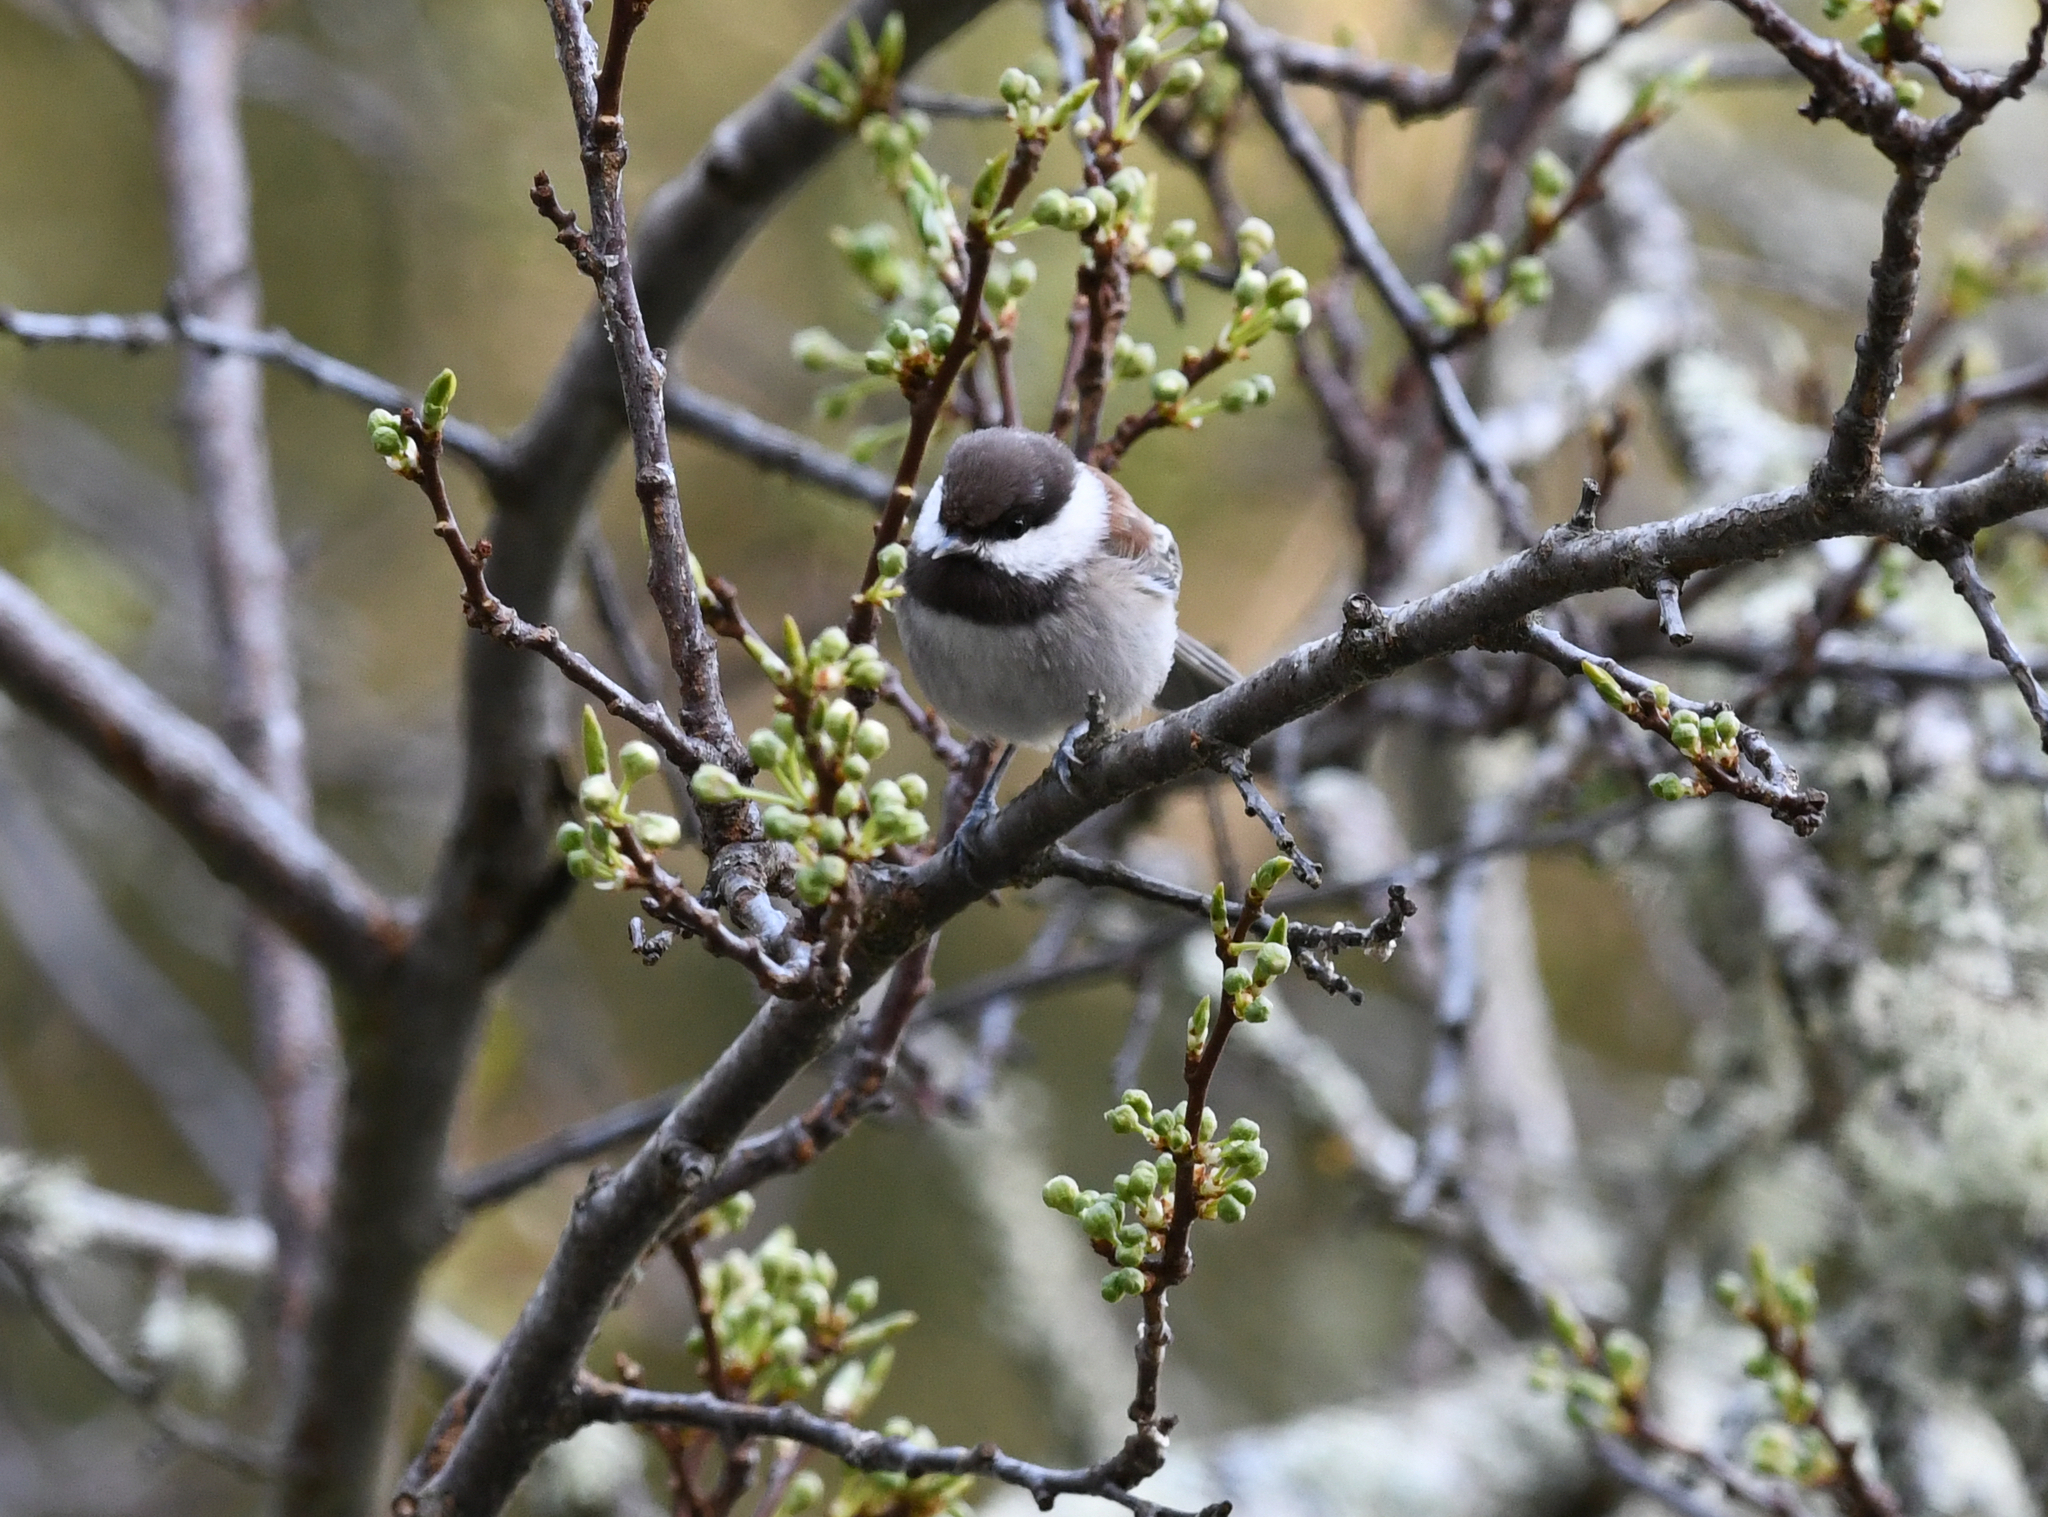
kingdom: Animalia
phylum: Chordata
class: Aves
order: Passeriformes
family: Paridae
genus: Poecile
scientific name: Poecile rufescens
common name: Chestnut-backed chickadee
